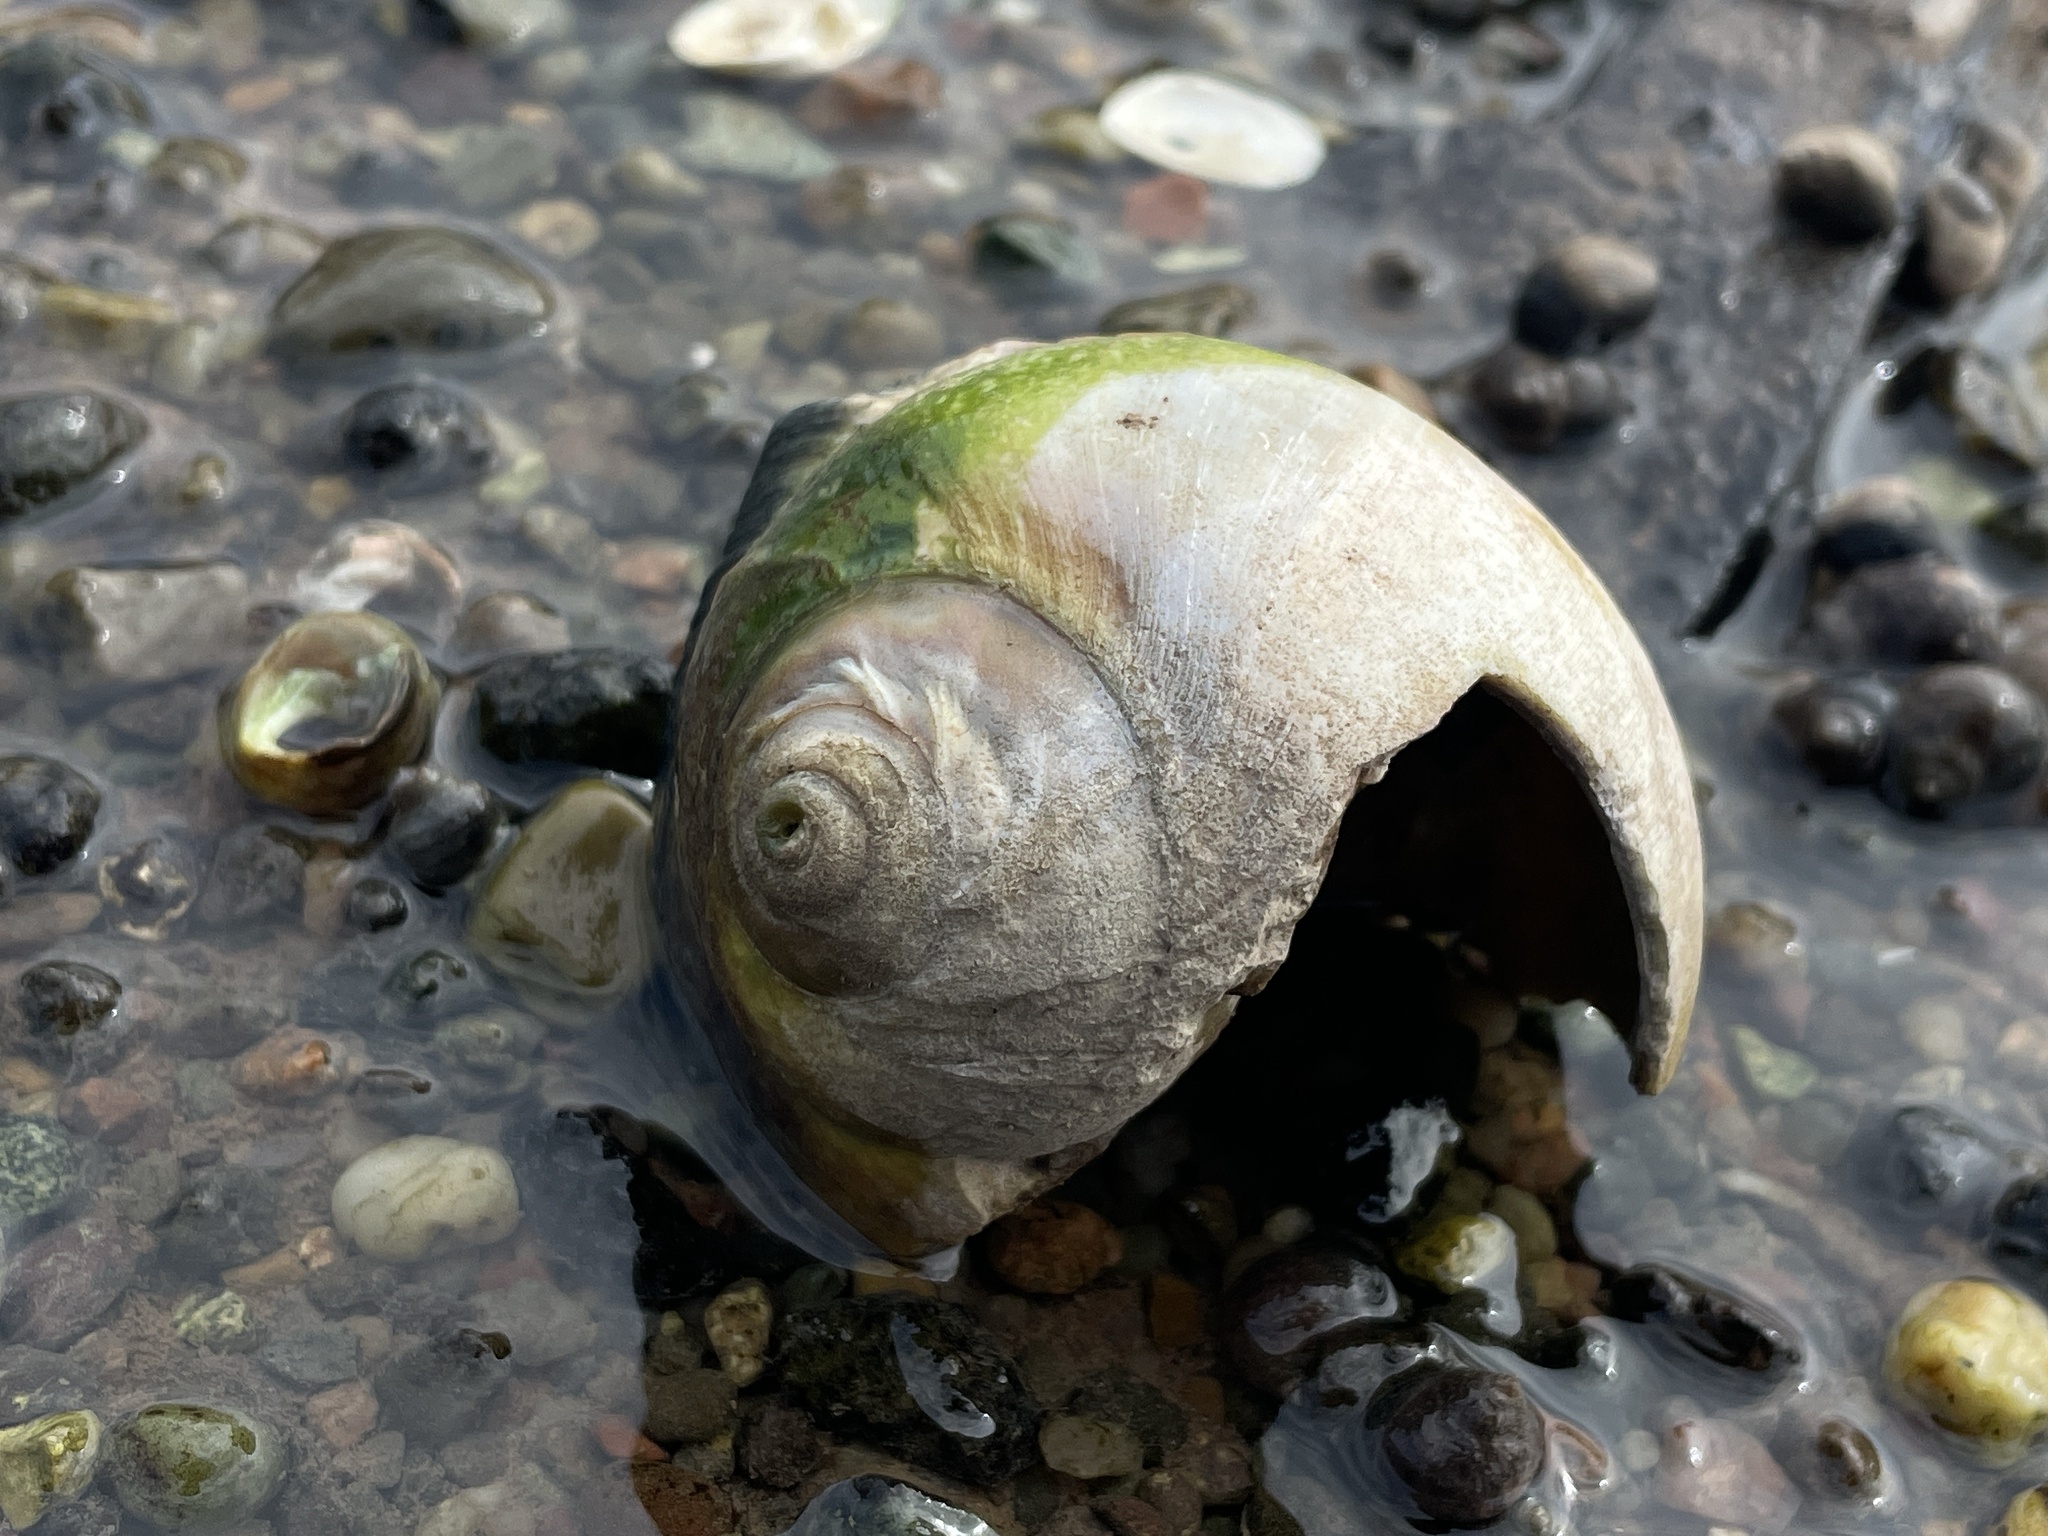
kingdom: Animalia
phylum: Mollusca
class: Gastropoda
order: Littorinimorpha
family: Naticidae
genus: Euspira
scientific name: Euspira heros
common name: Common northern moonsnail
